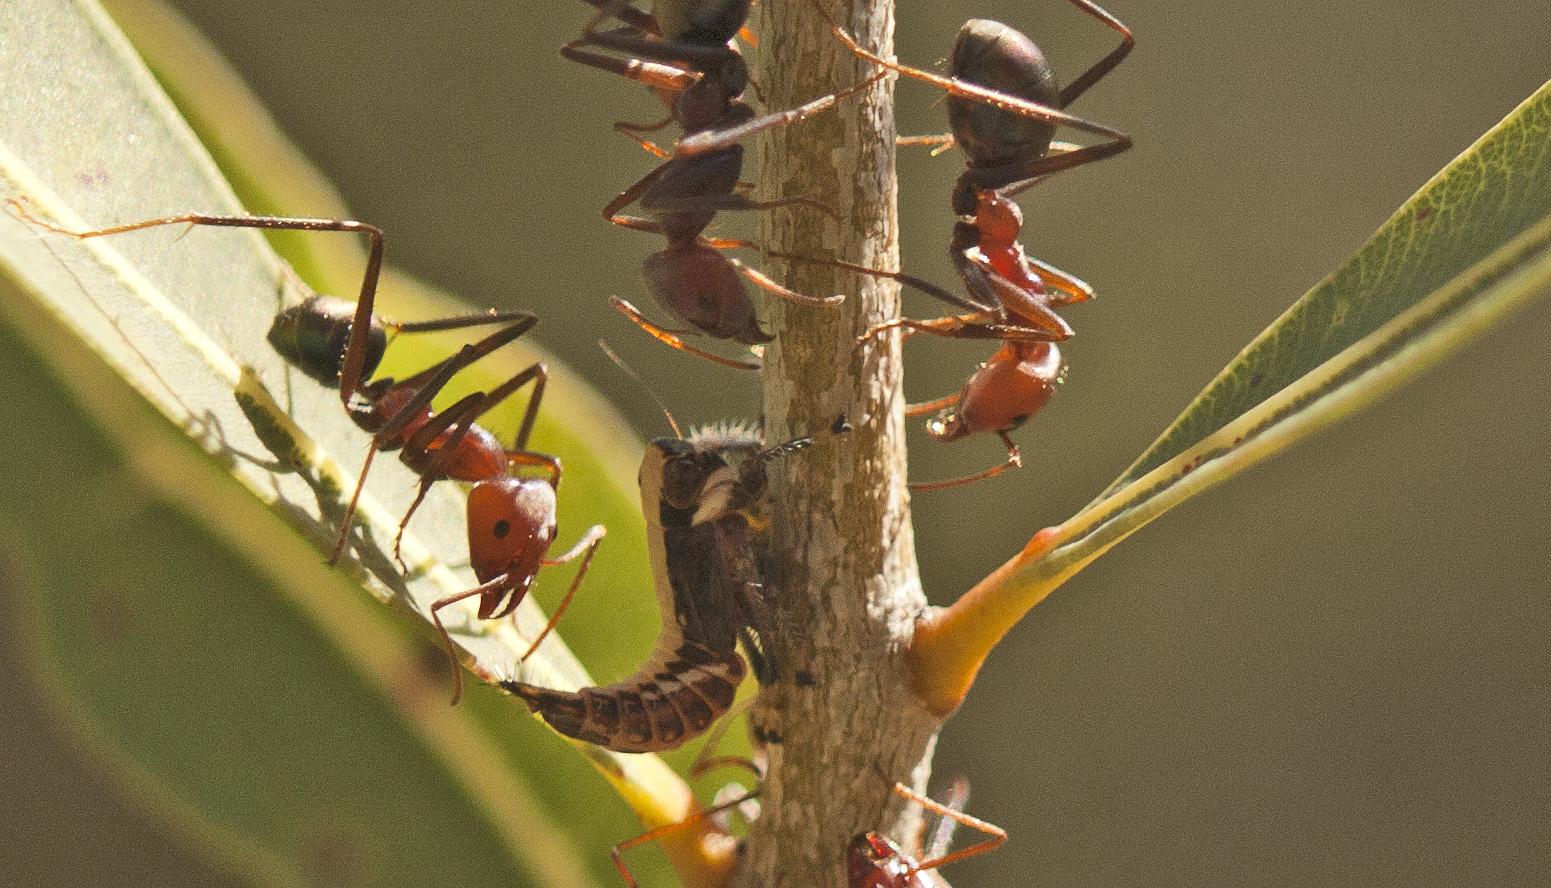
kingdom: Animalia
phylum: Arthropoda
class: Insecta
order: Hymenoptera
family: Formicidae
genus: Iridomyrmex
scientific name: Iridomyrmex purpureus
